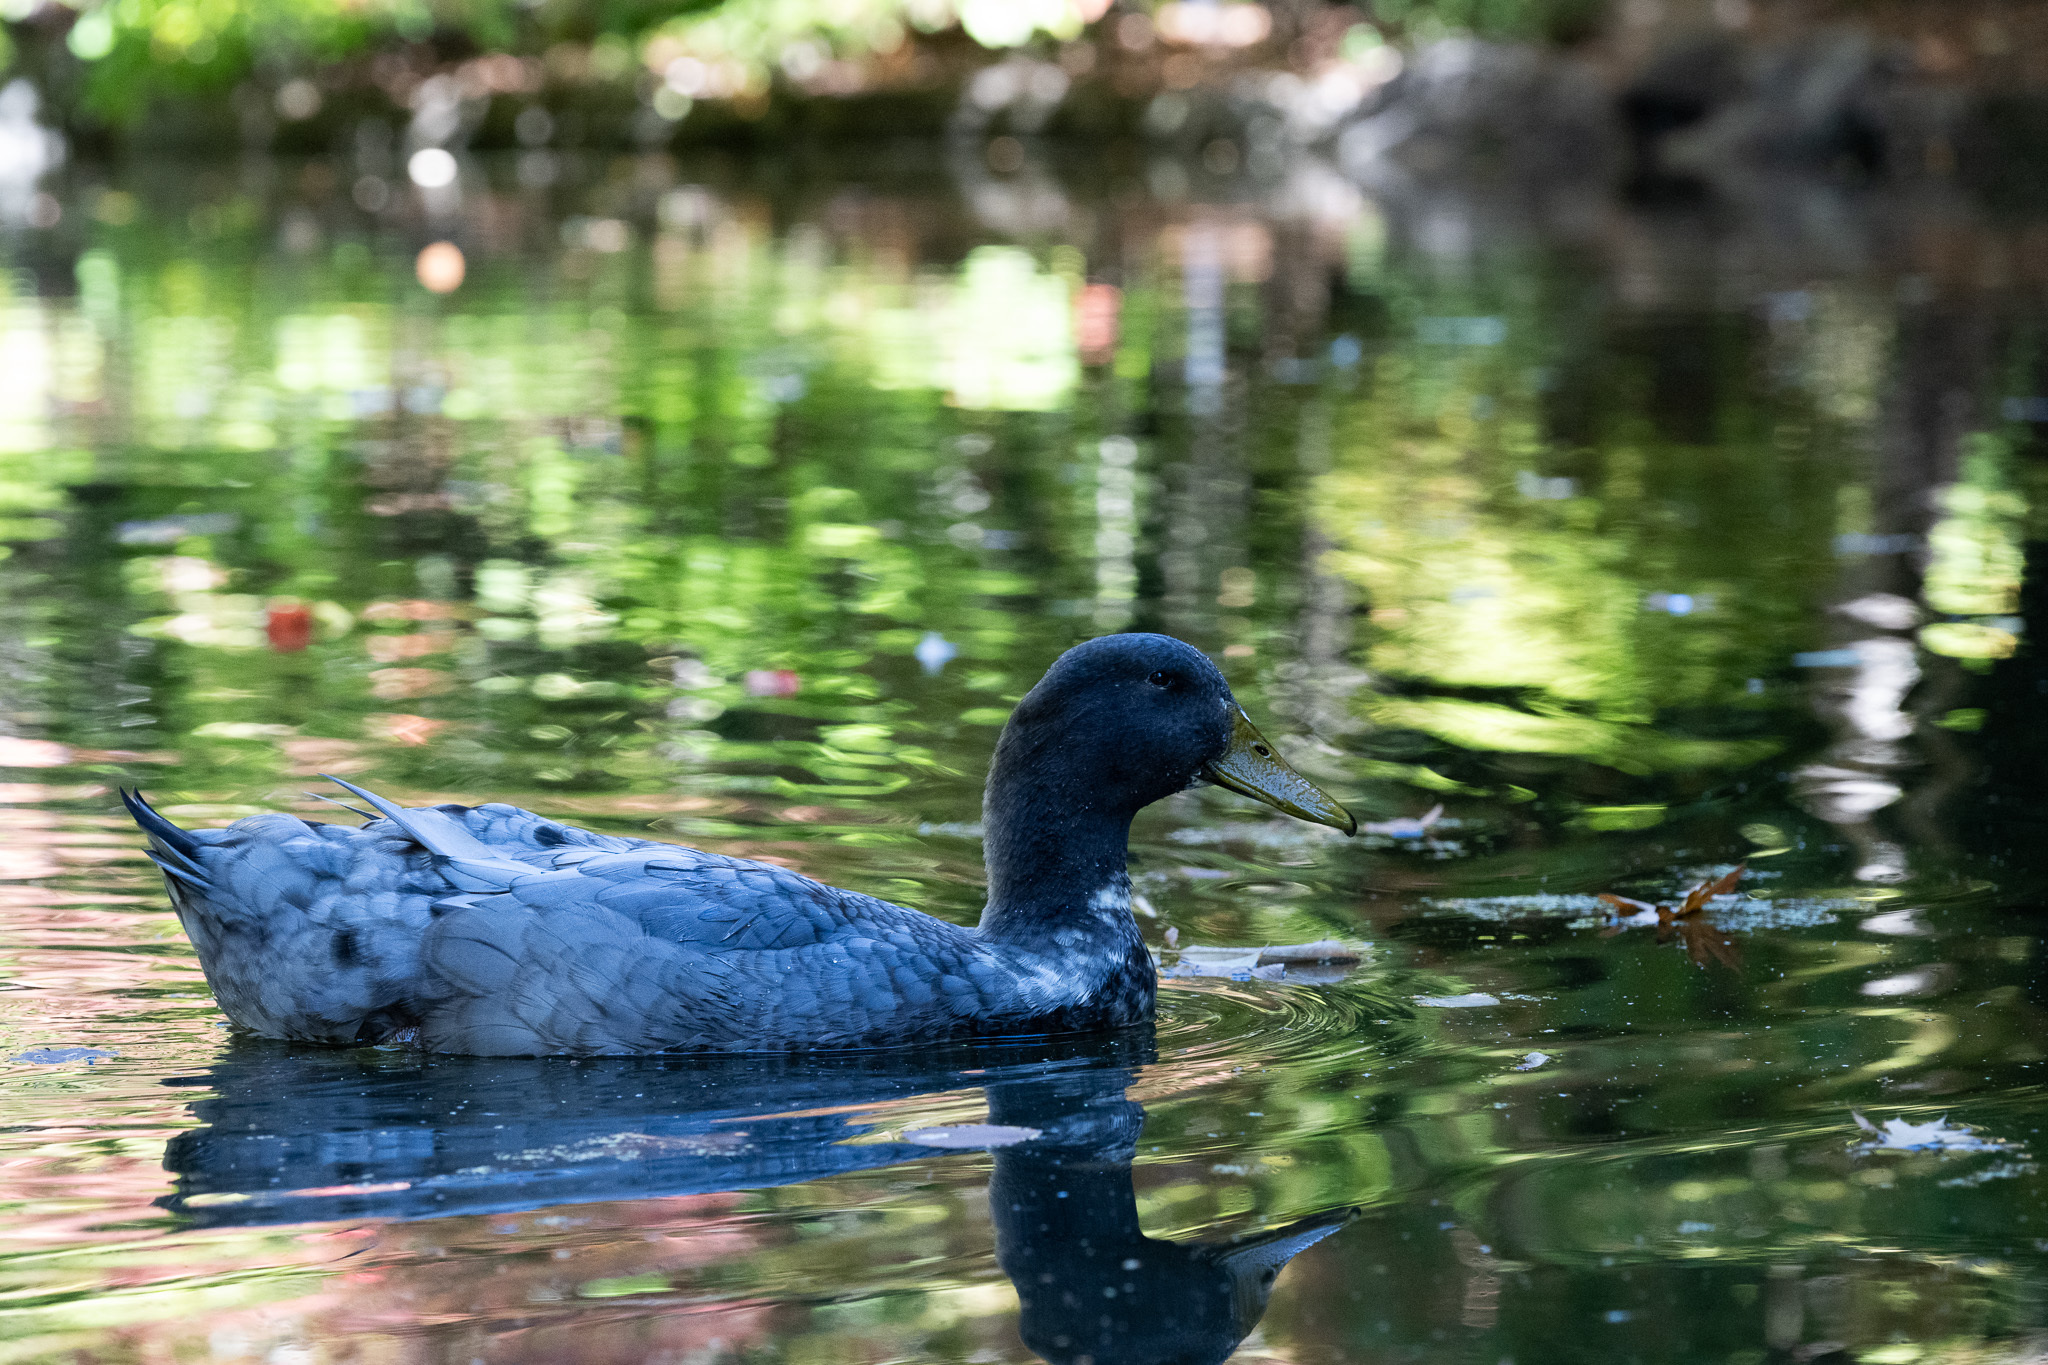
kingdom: Animalia
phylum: Chordata
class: Aves
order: Anseriformes
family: Anatidae
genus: Anas
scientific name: Anas platyrhynchos
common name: Mallard
